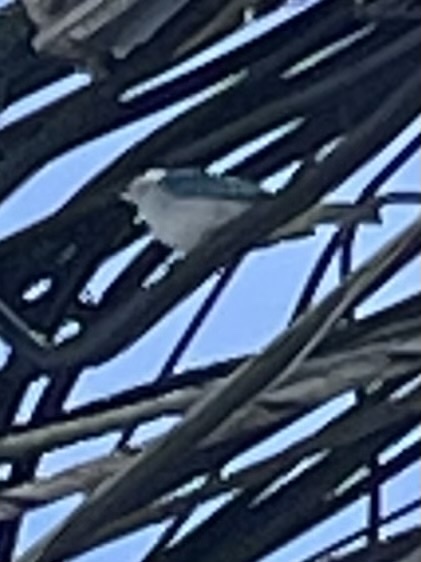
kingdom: Animalia
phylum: Chordata
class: Aves
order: Passeriformes
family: Thraupidae
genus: Thraupis
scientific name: Thraupis episcopus
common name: Blue-grey tanager
